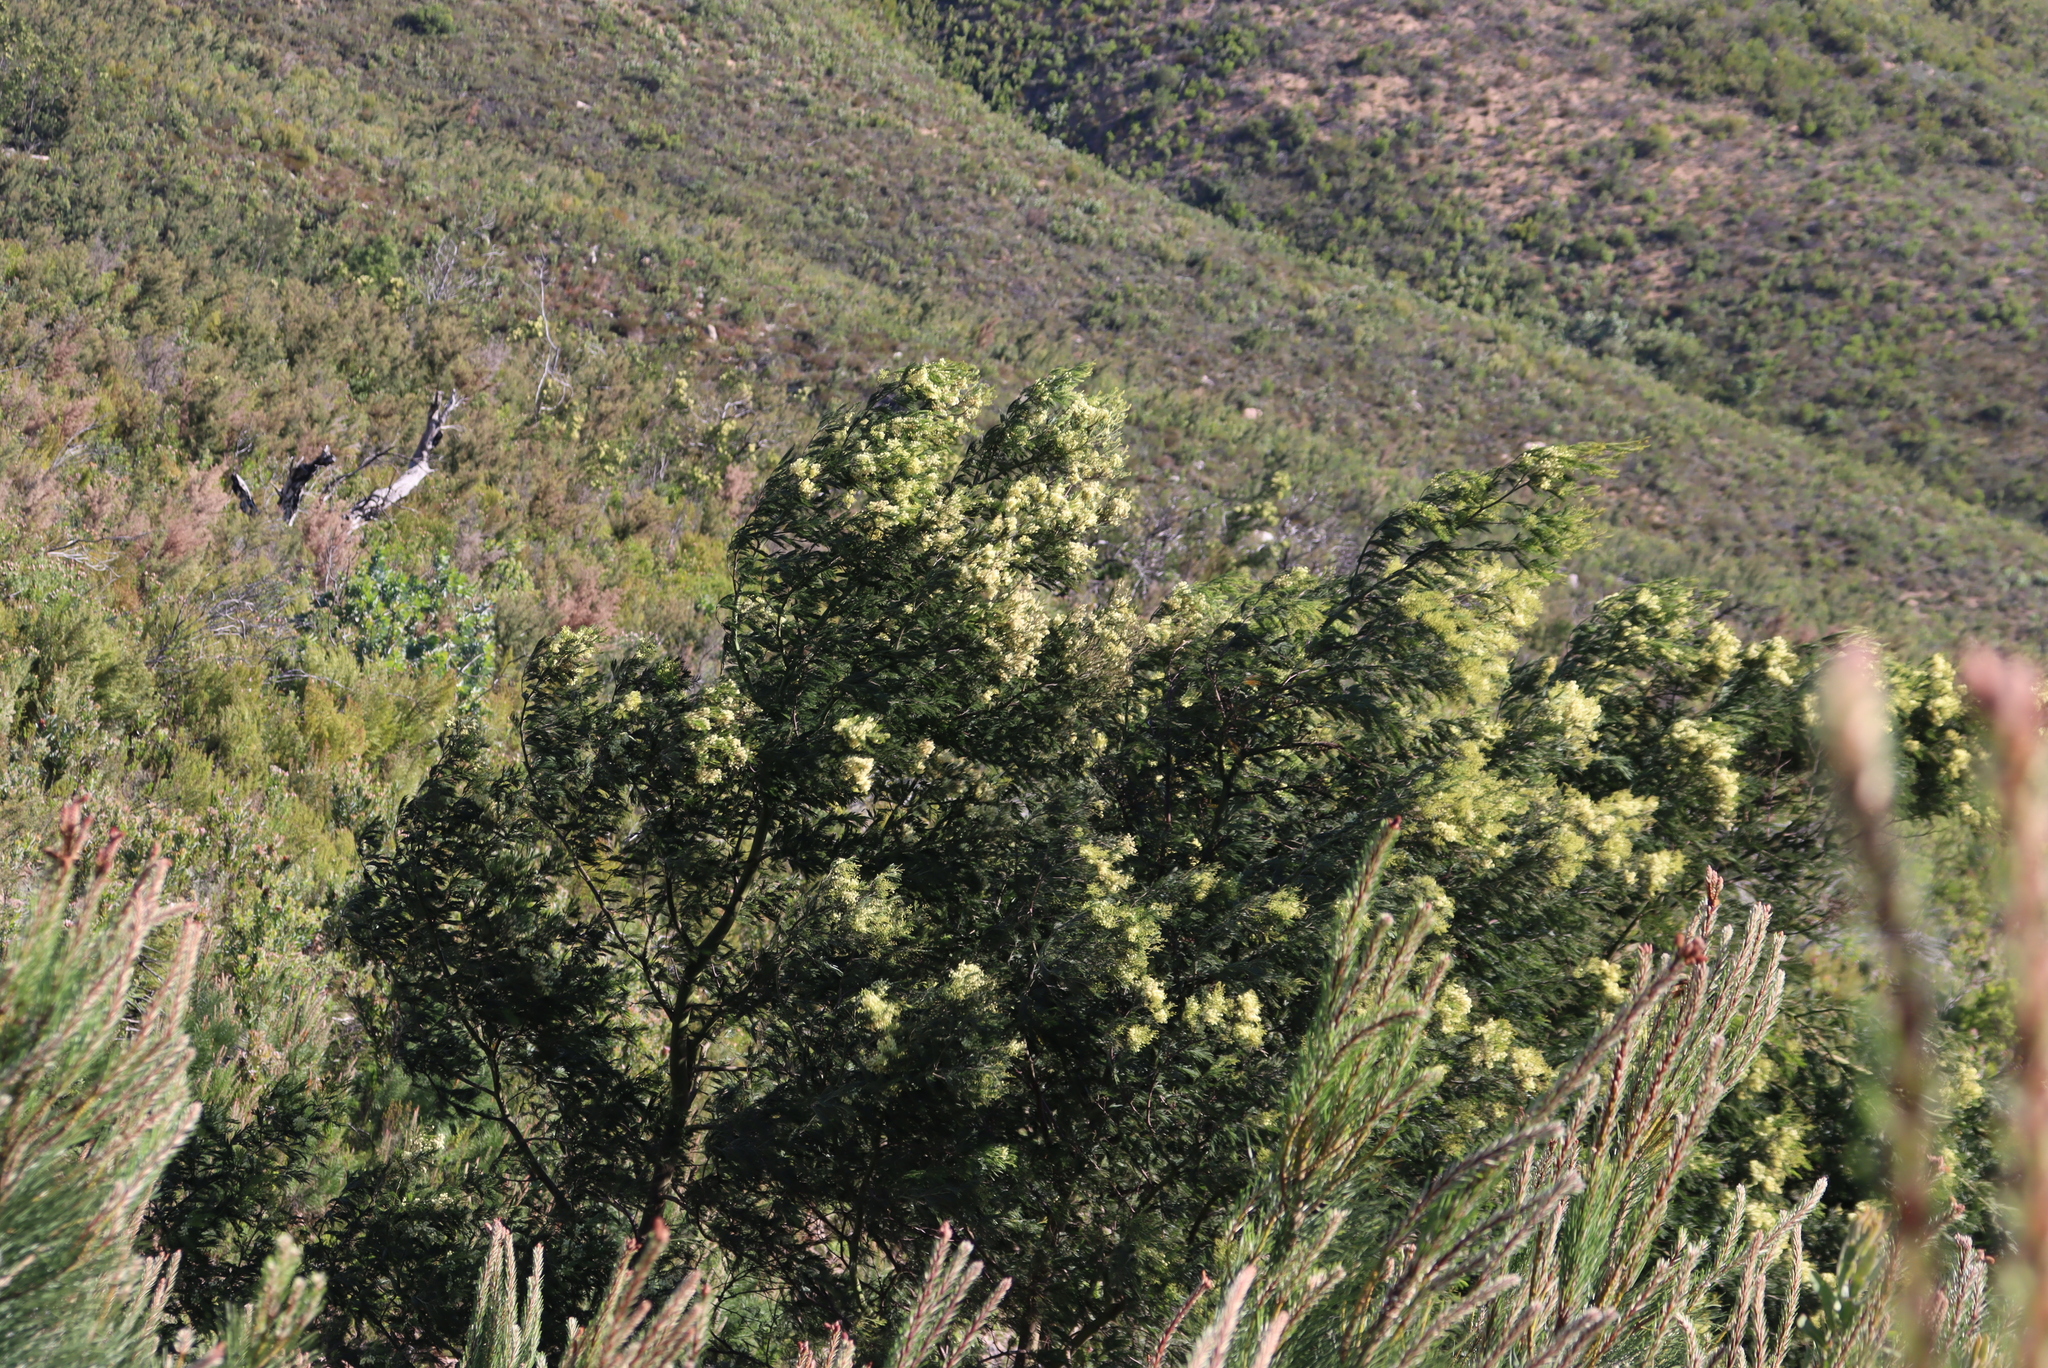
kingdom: Plantae
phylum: Tracheophyta
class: Magnoliopsida
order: Fabales
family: Fabaceae
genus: Acacia
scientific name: Acacia mearnsii
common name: Black wattle
